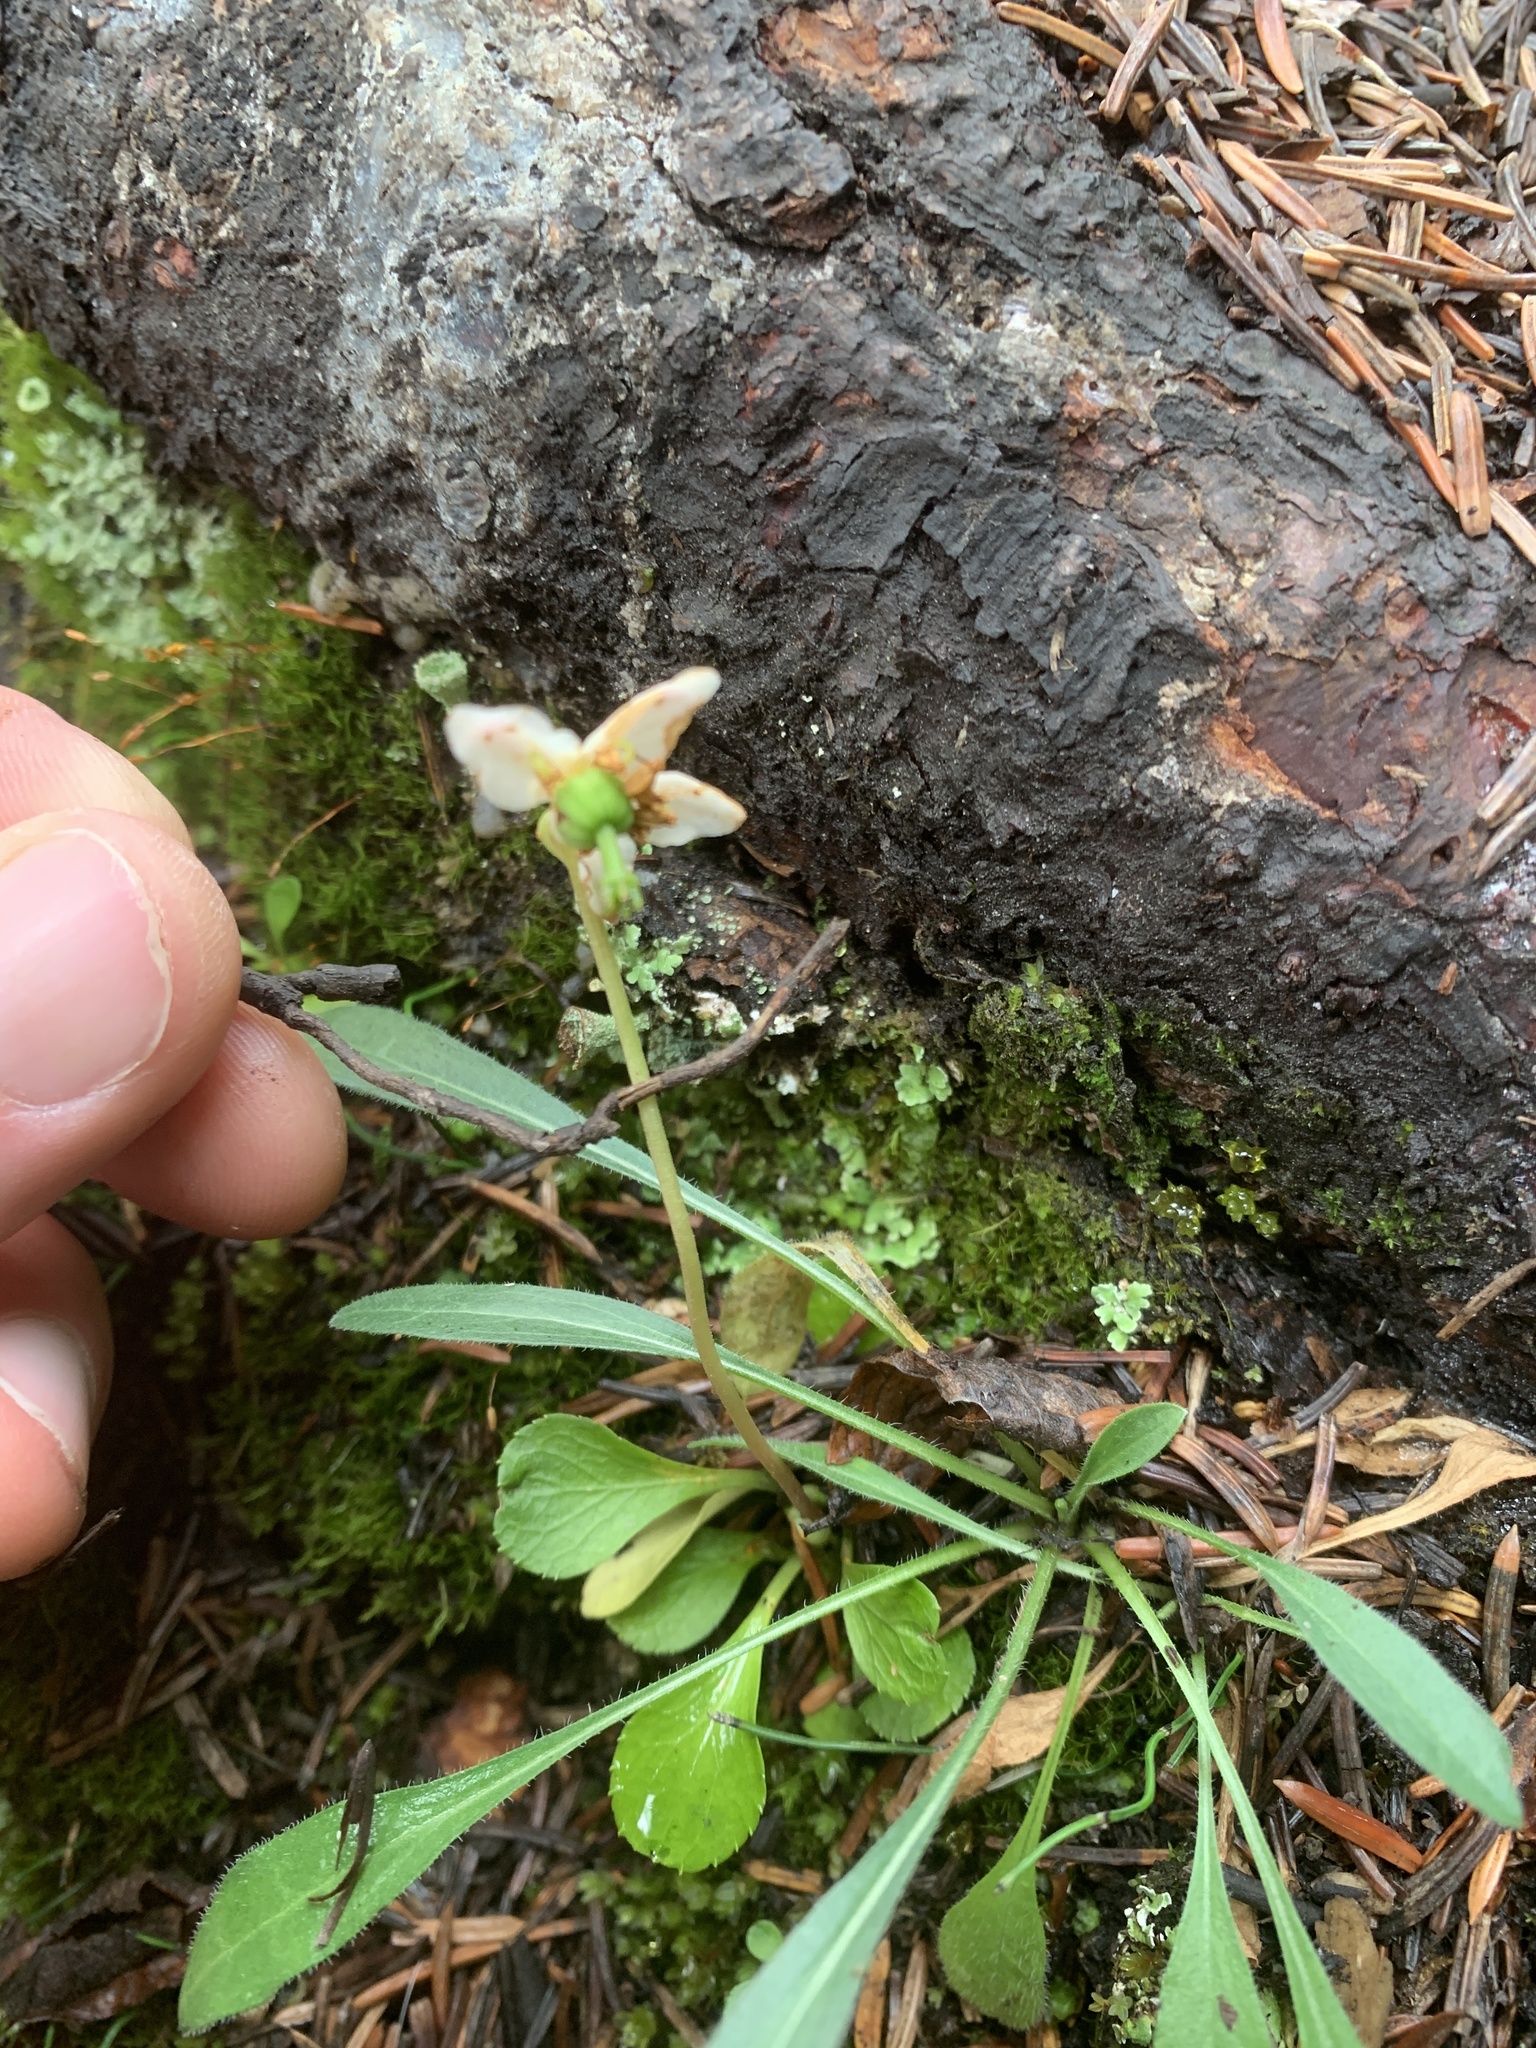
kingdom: Plantae
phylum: Tracheophyta
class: Magnoliopsida
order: Ericales
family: Ericaceae
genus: Moneses
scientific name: Moneses uniflora
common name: One-flowered wintergreen
